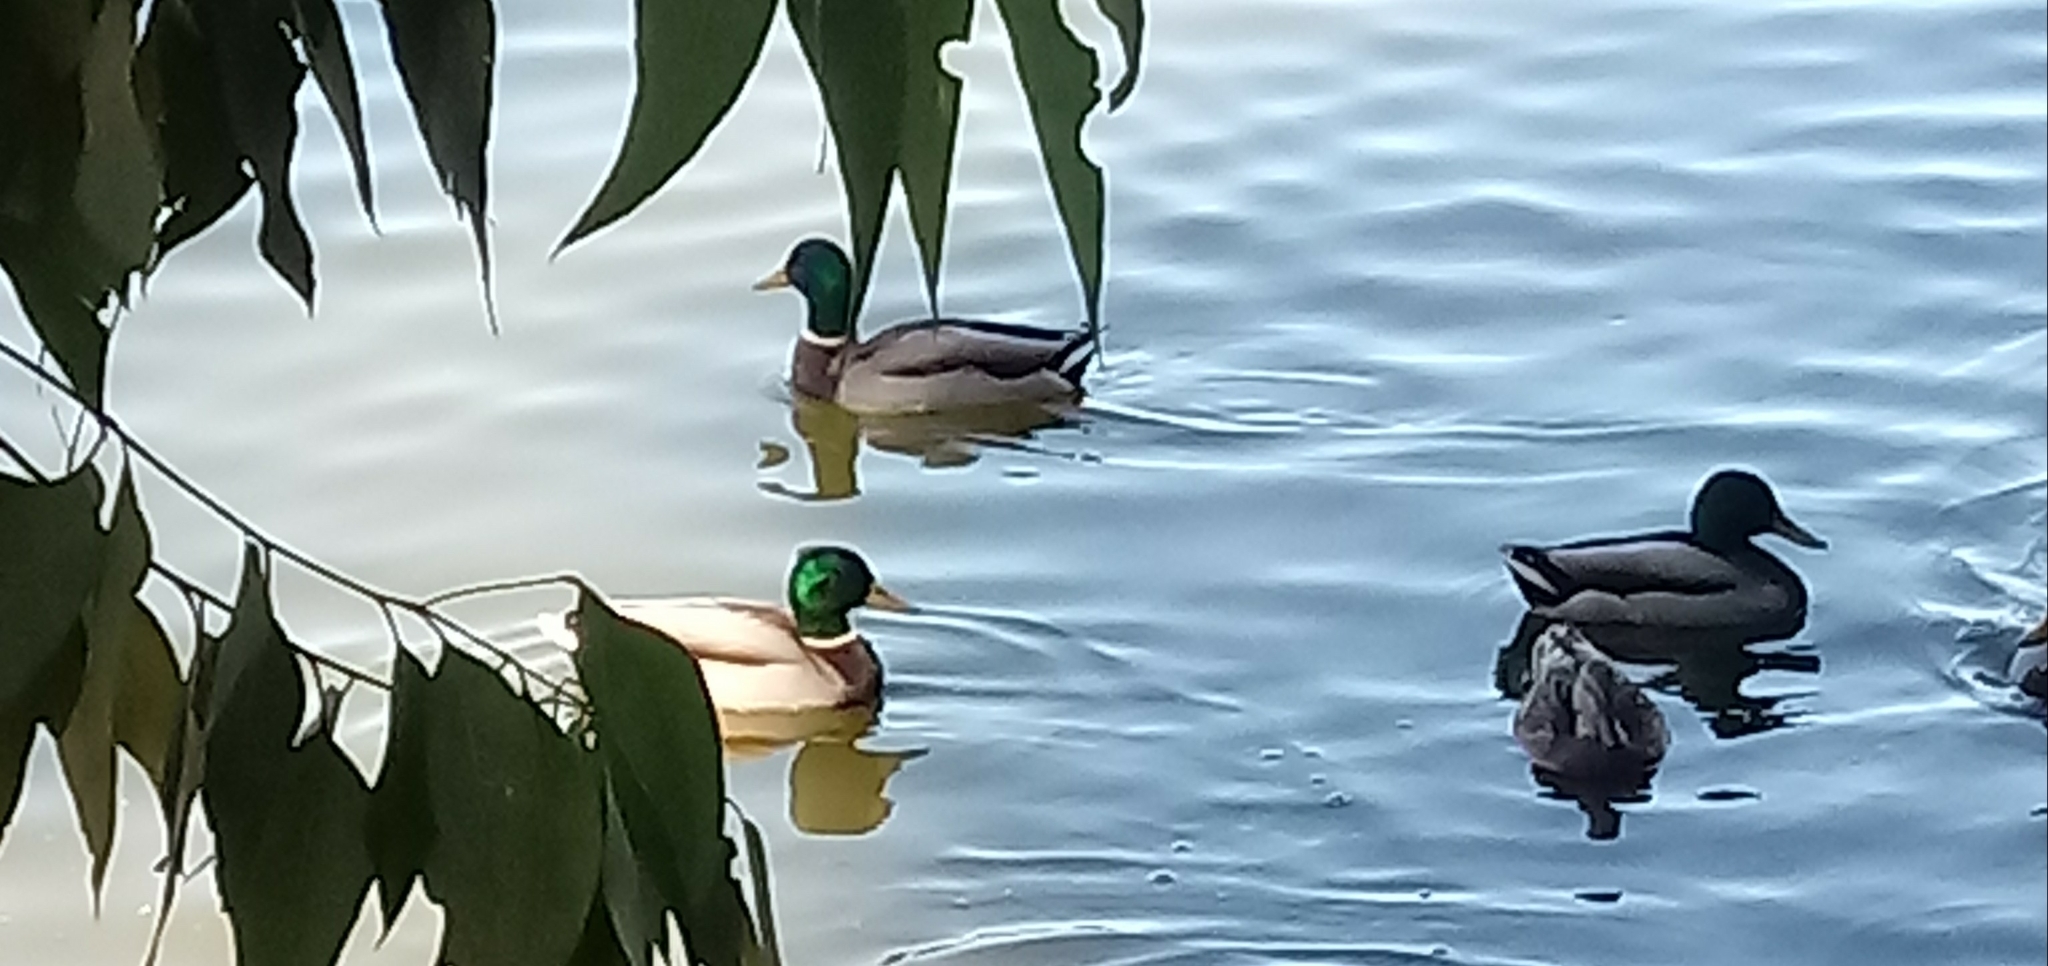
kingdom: Animalia
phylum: Chordata
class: Aves
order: Anseriformes
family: Anatidae
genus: Anas
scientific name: Anas platyrhynchos
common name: Mallard
